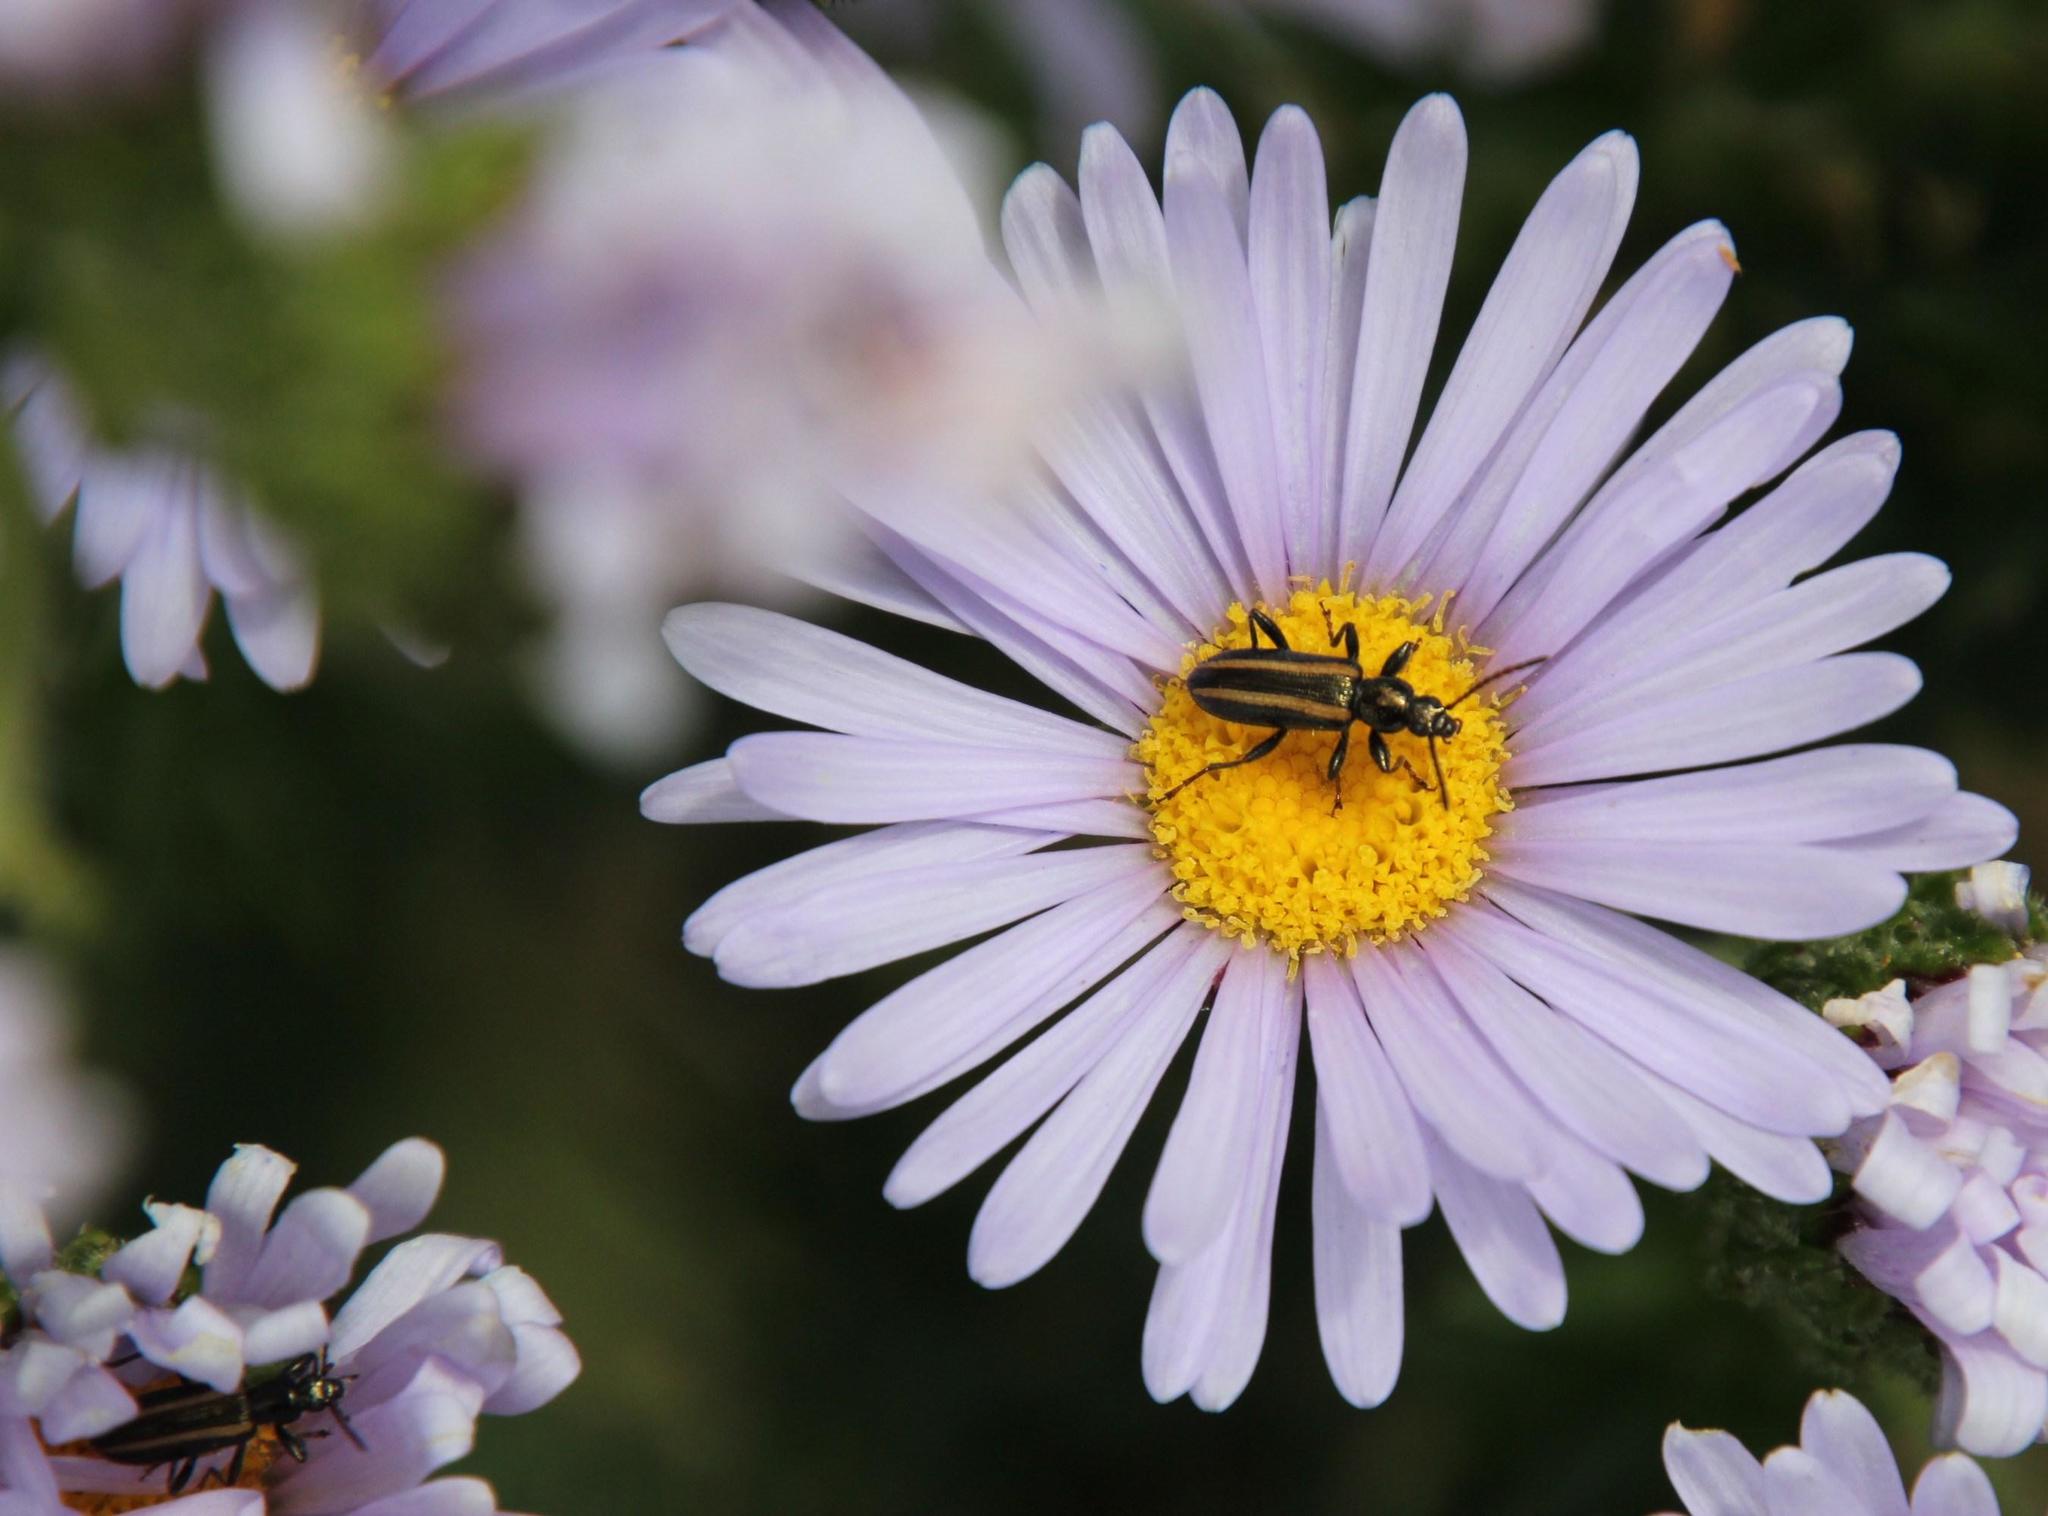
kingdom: Plantae
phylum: Tracheophyta
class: Magnoliopsida
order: Asterales
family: Asteraceae
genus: Felicia
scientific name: Felicia echinata
